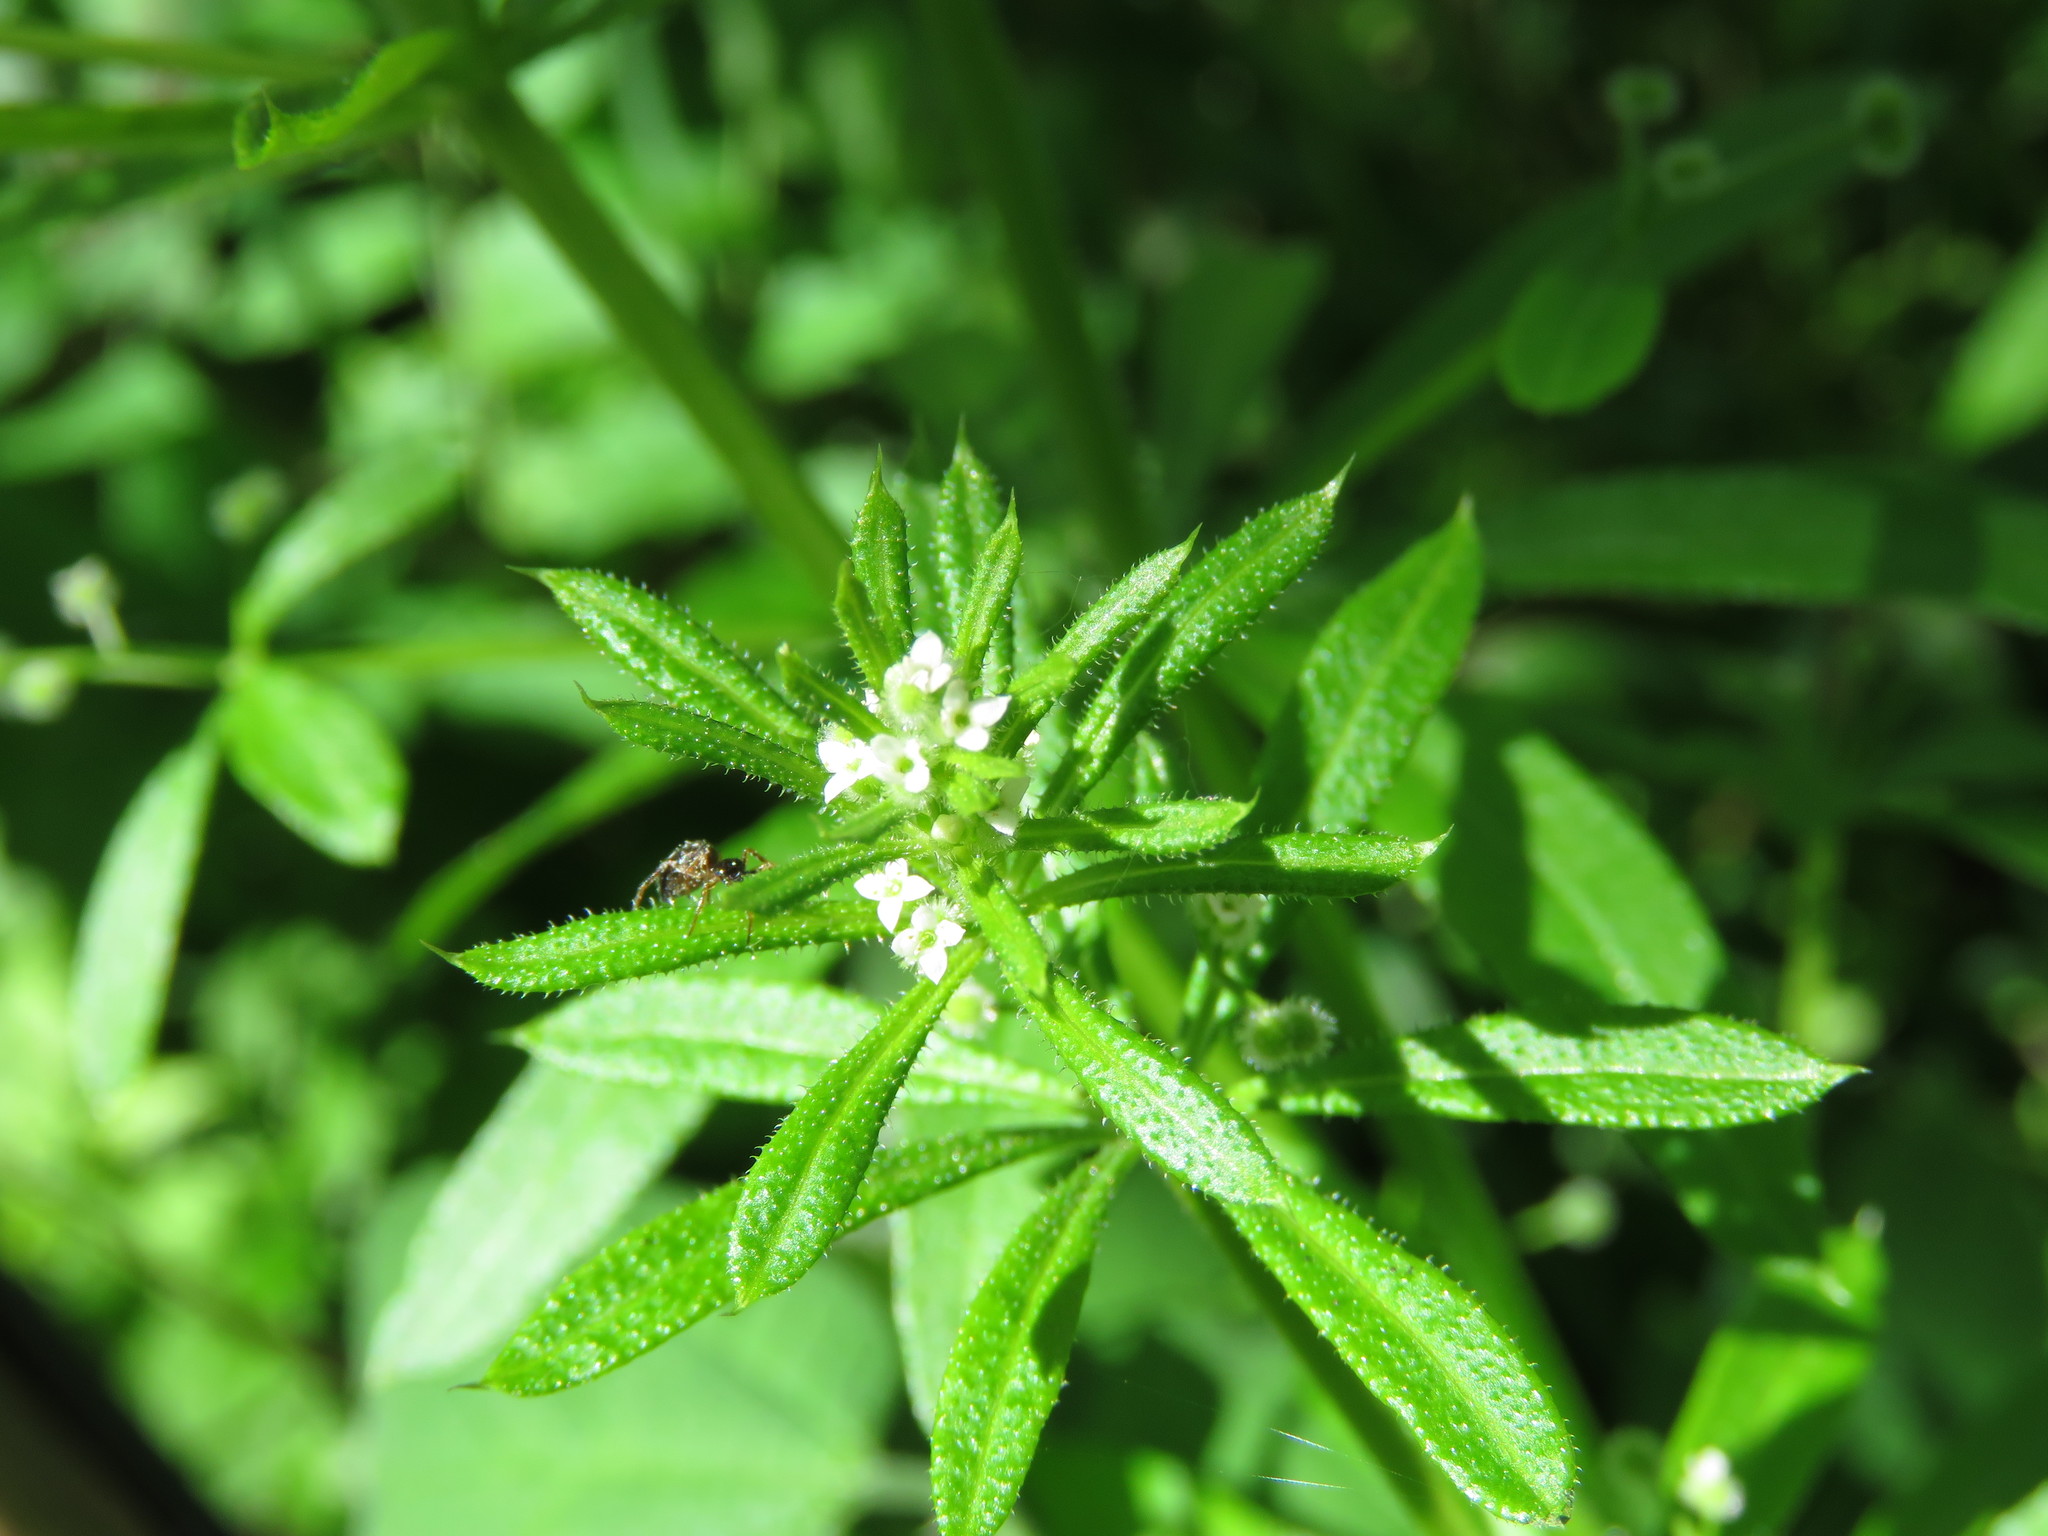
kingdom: Plantae
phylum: Tracheophyta
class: Magnoliopsida
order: Gentianales
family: Rubiaceae
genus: Galium
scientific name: Galium aparine
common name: Cleavers
